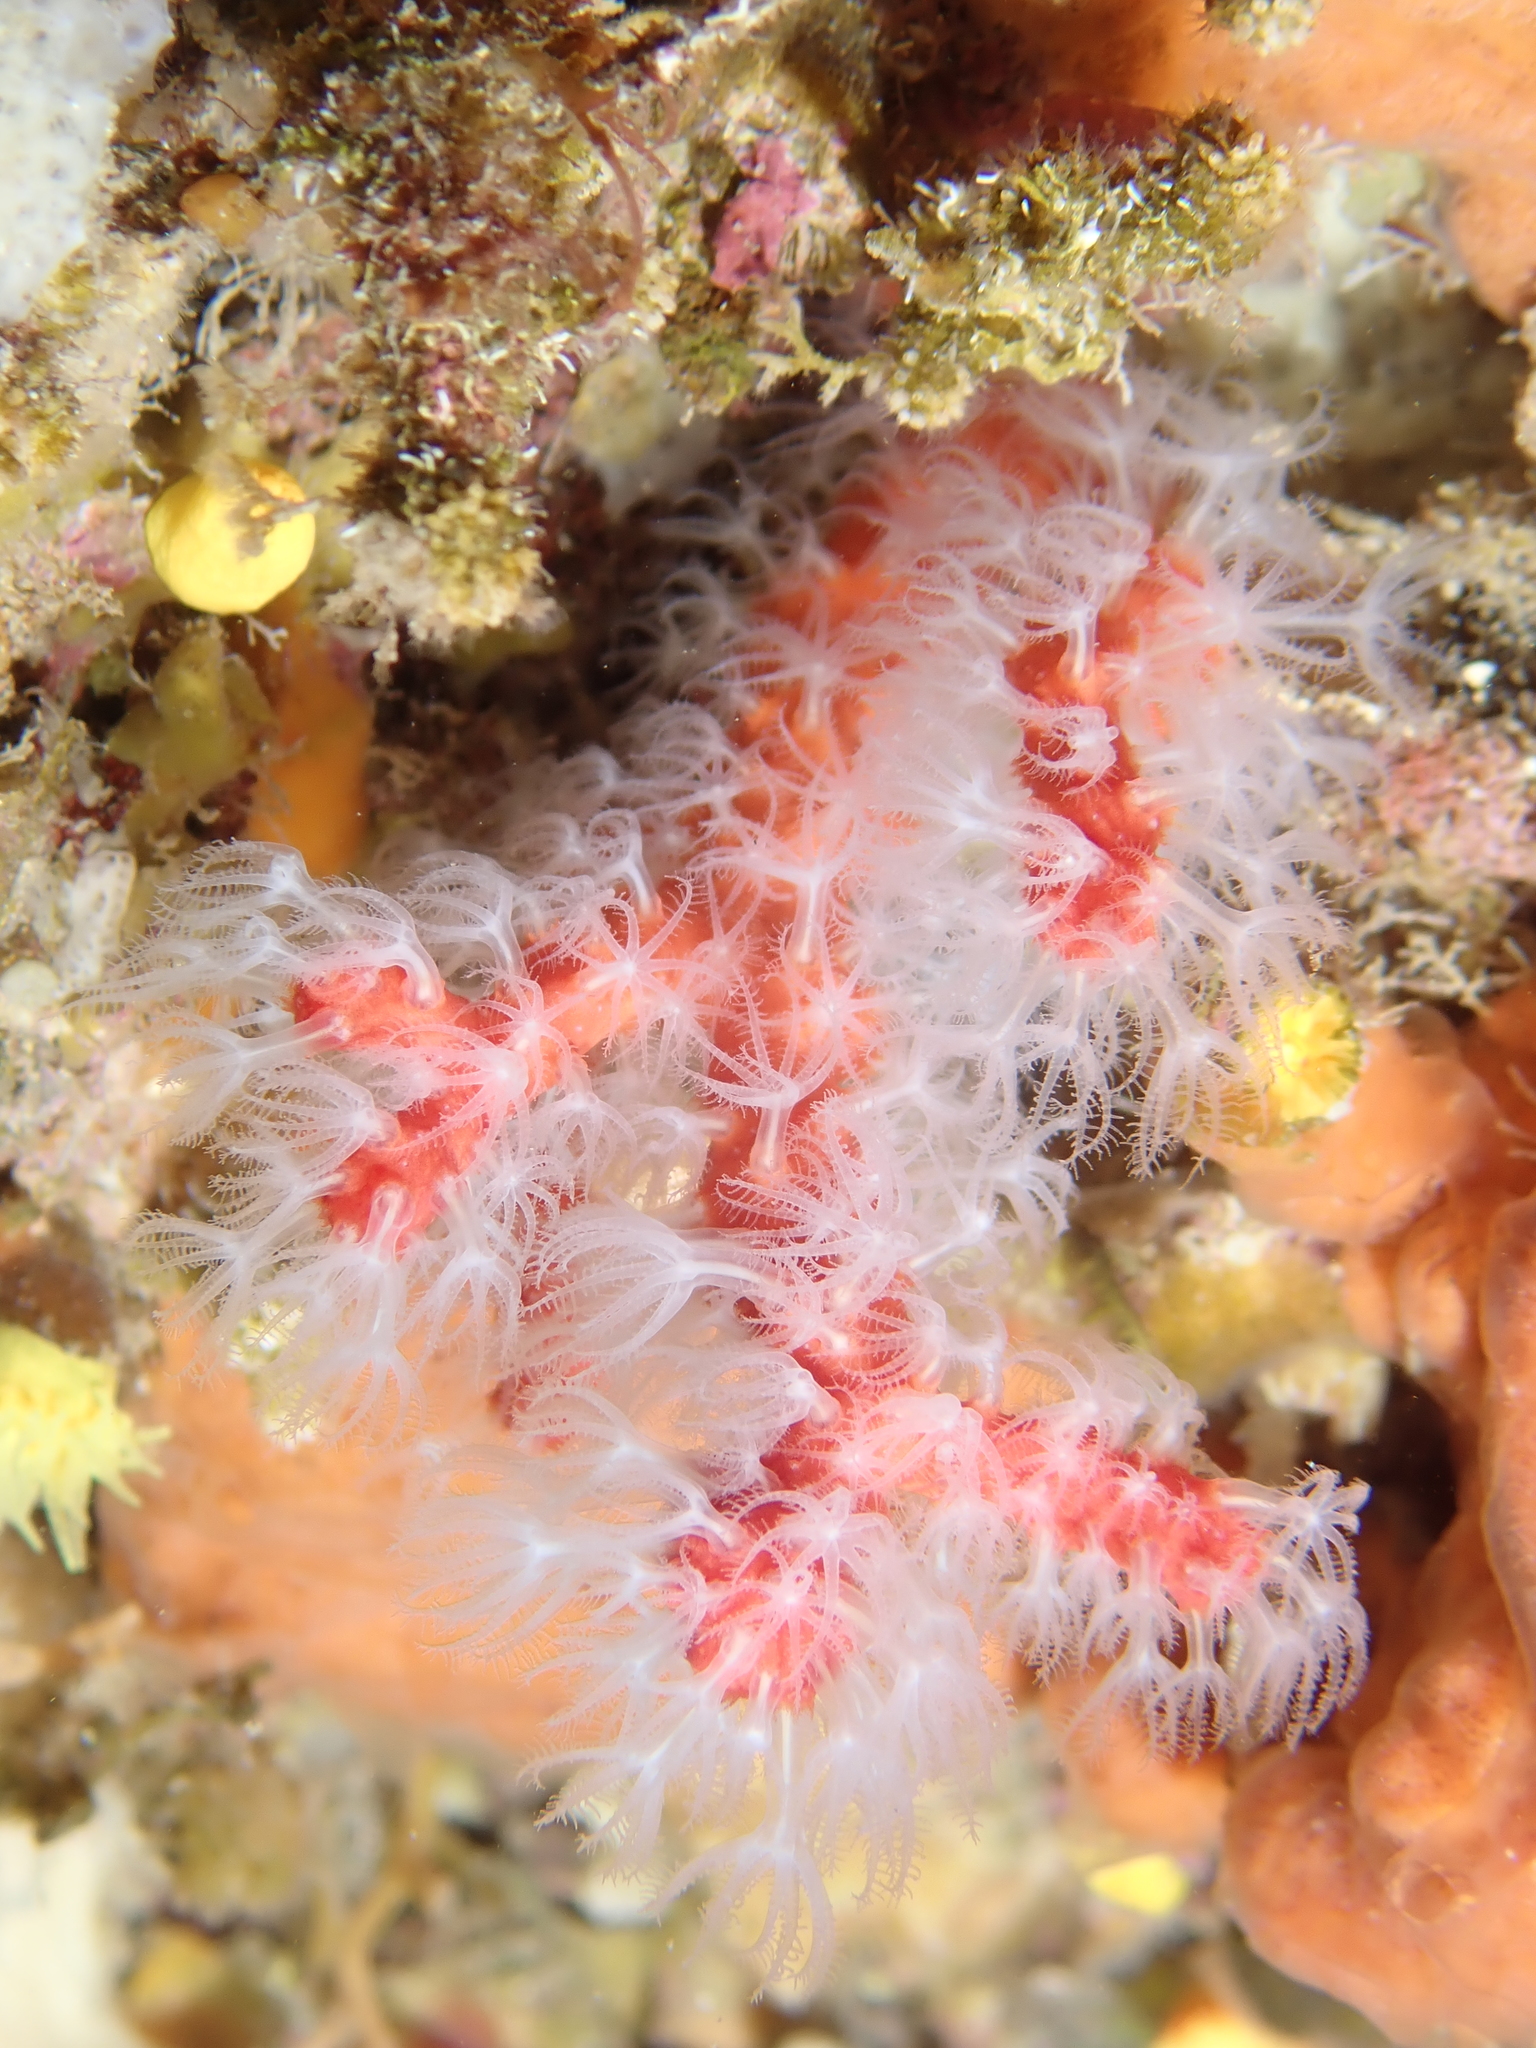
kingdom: Animalia
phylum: Cnidaria
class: Anthozoa
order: Scleralcyonacea
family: Coralliidae
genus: Corallium
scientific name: Corallium rubrum
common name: Precious coral
